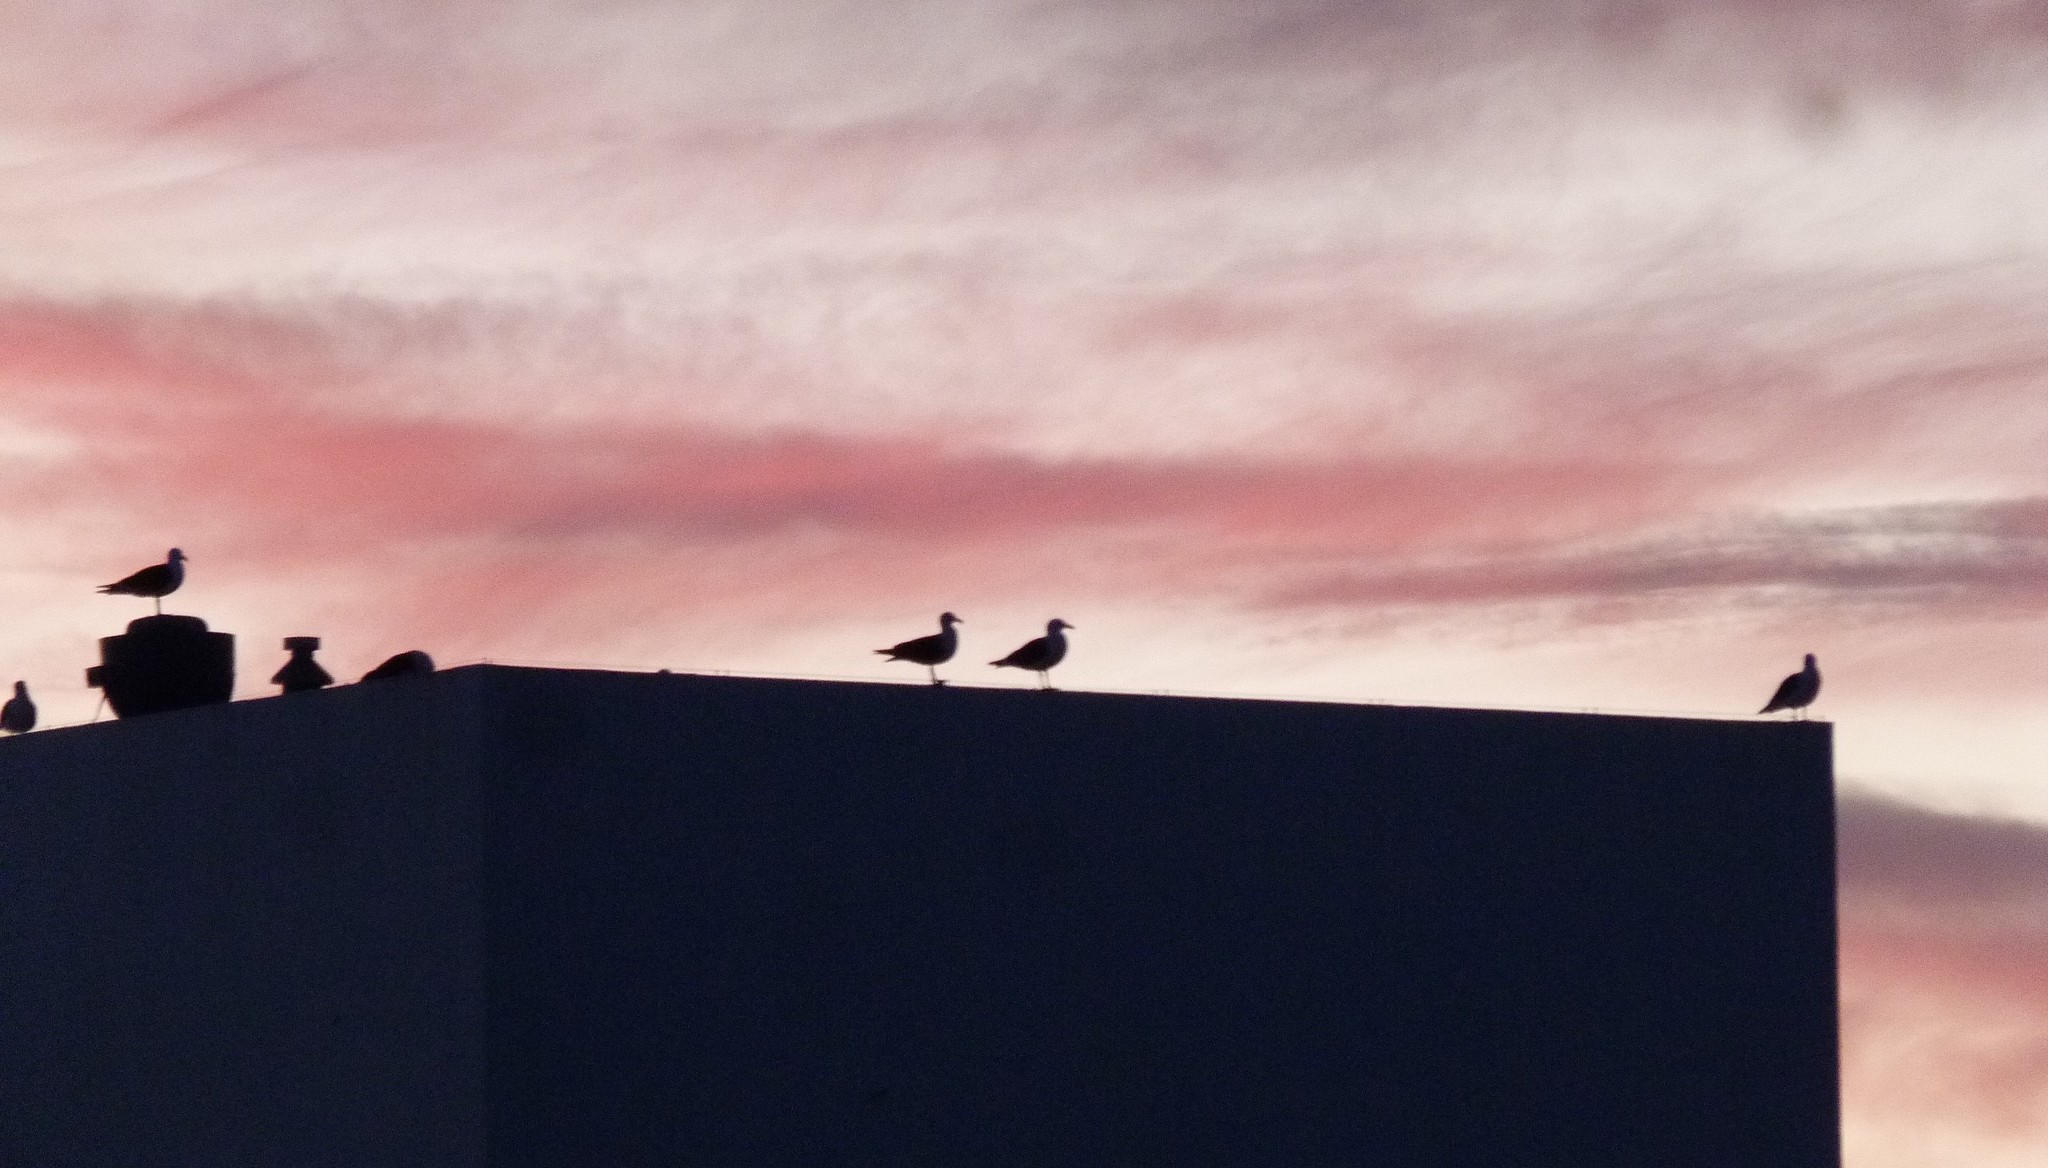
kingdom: Animalia
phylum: Chordata
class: Aves
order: Charadriiformes
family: Laridae
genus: Larus
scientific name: Larus dominicanus
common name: Kelp gull
